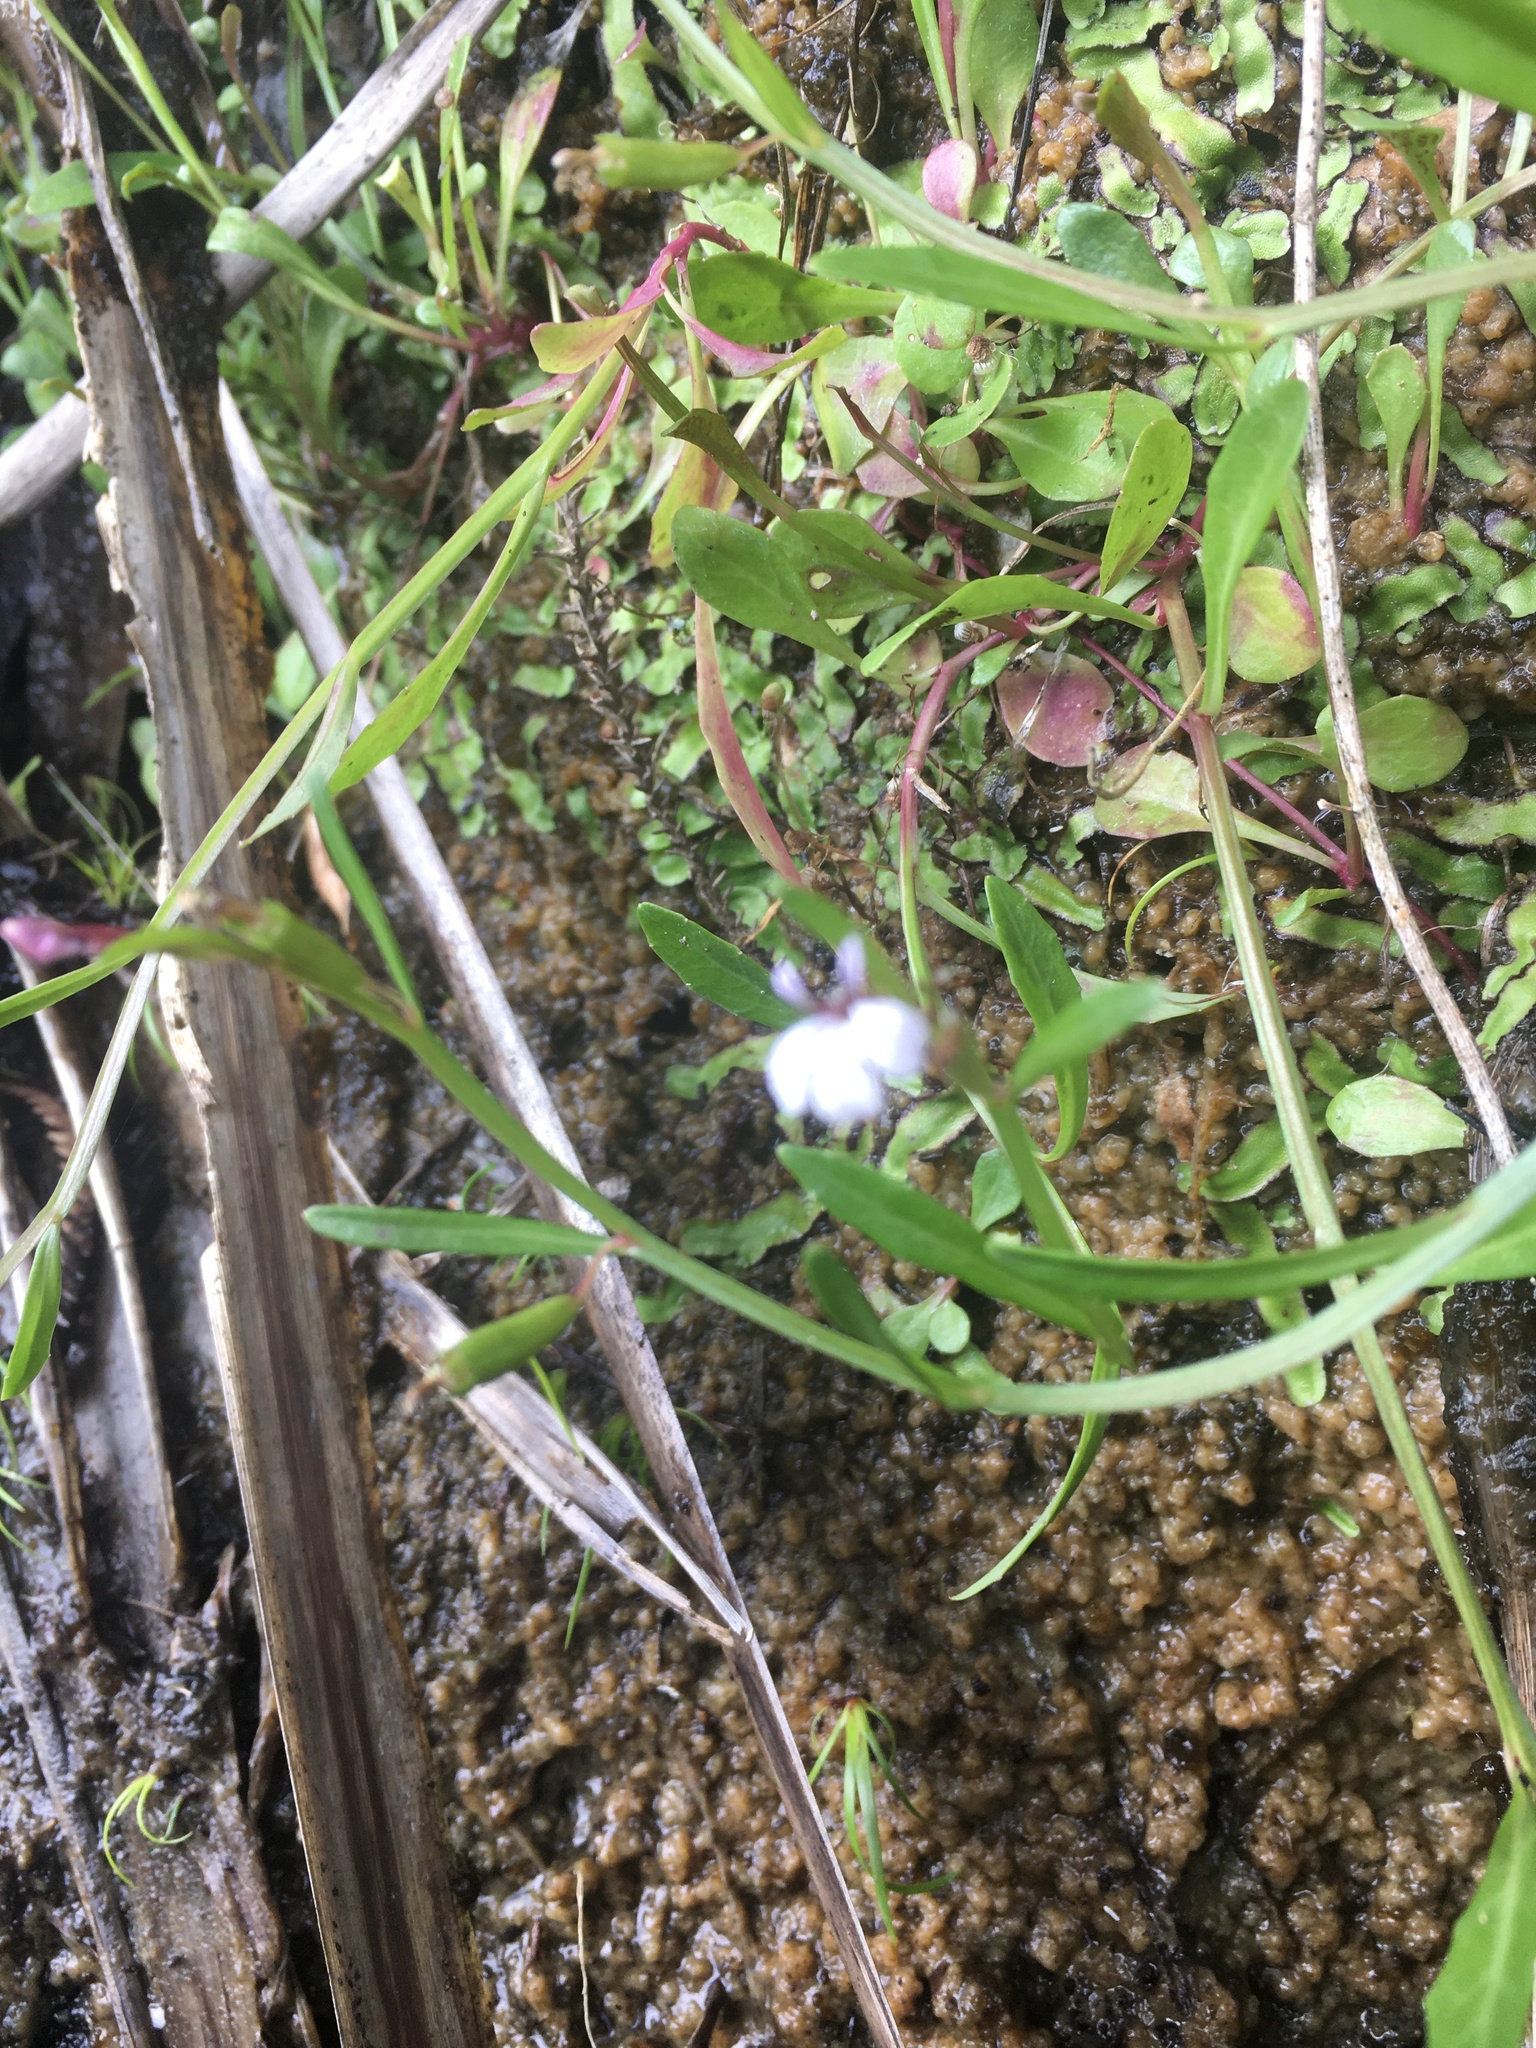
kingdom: Plantae
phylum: Tracheophyta
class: Magnoliopsida
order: Asterales
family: Campanulaceae
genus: Lobelia
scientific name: Lobelia anceps
